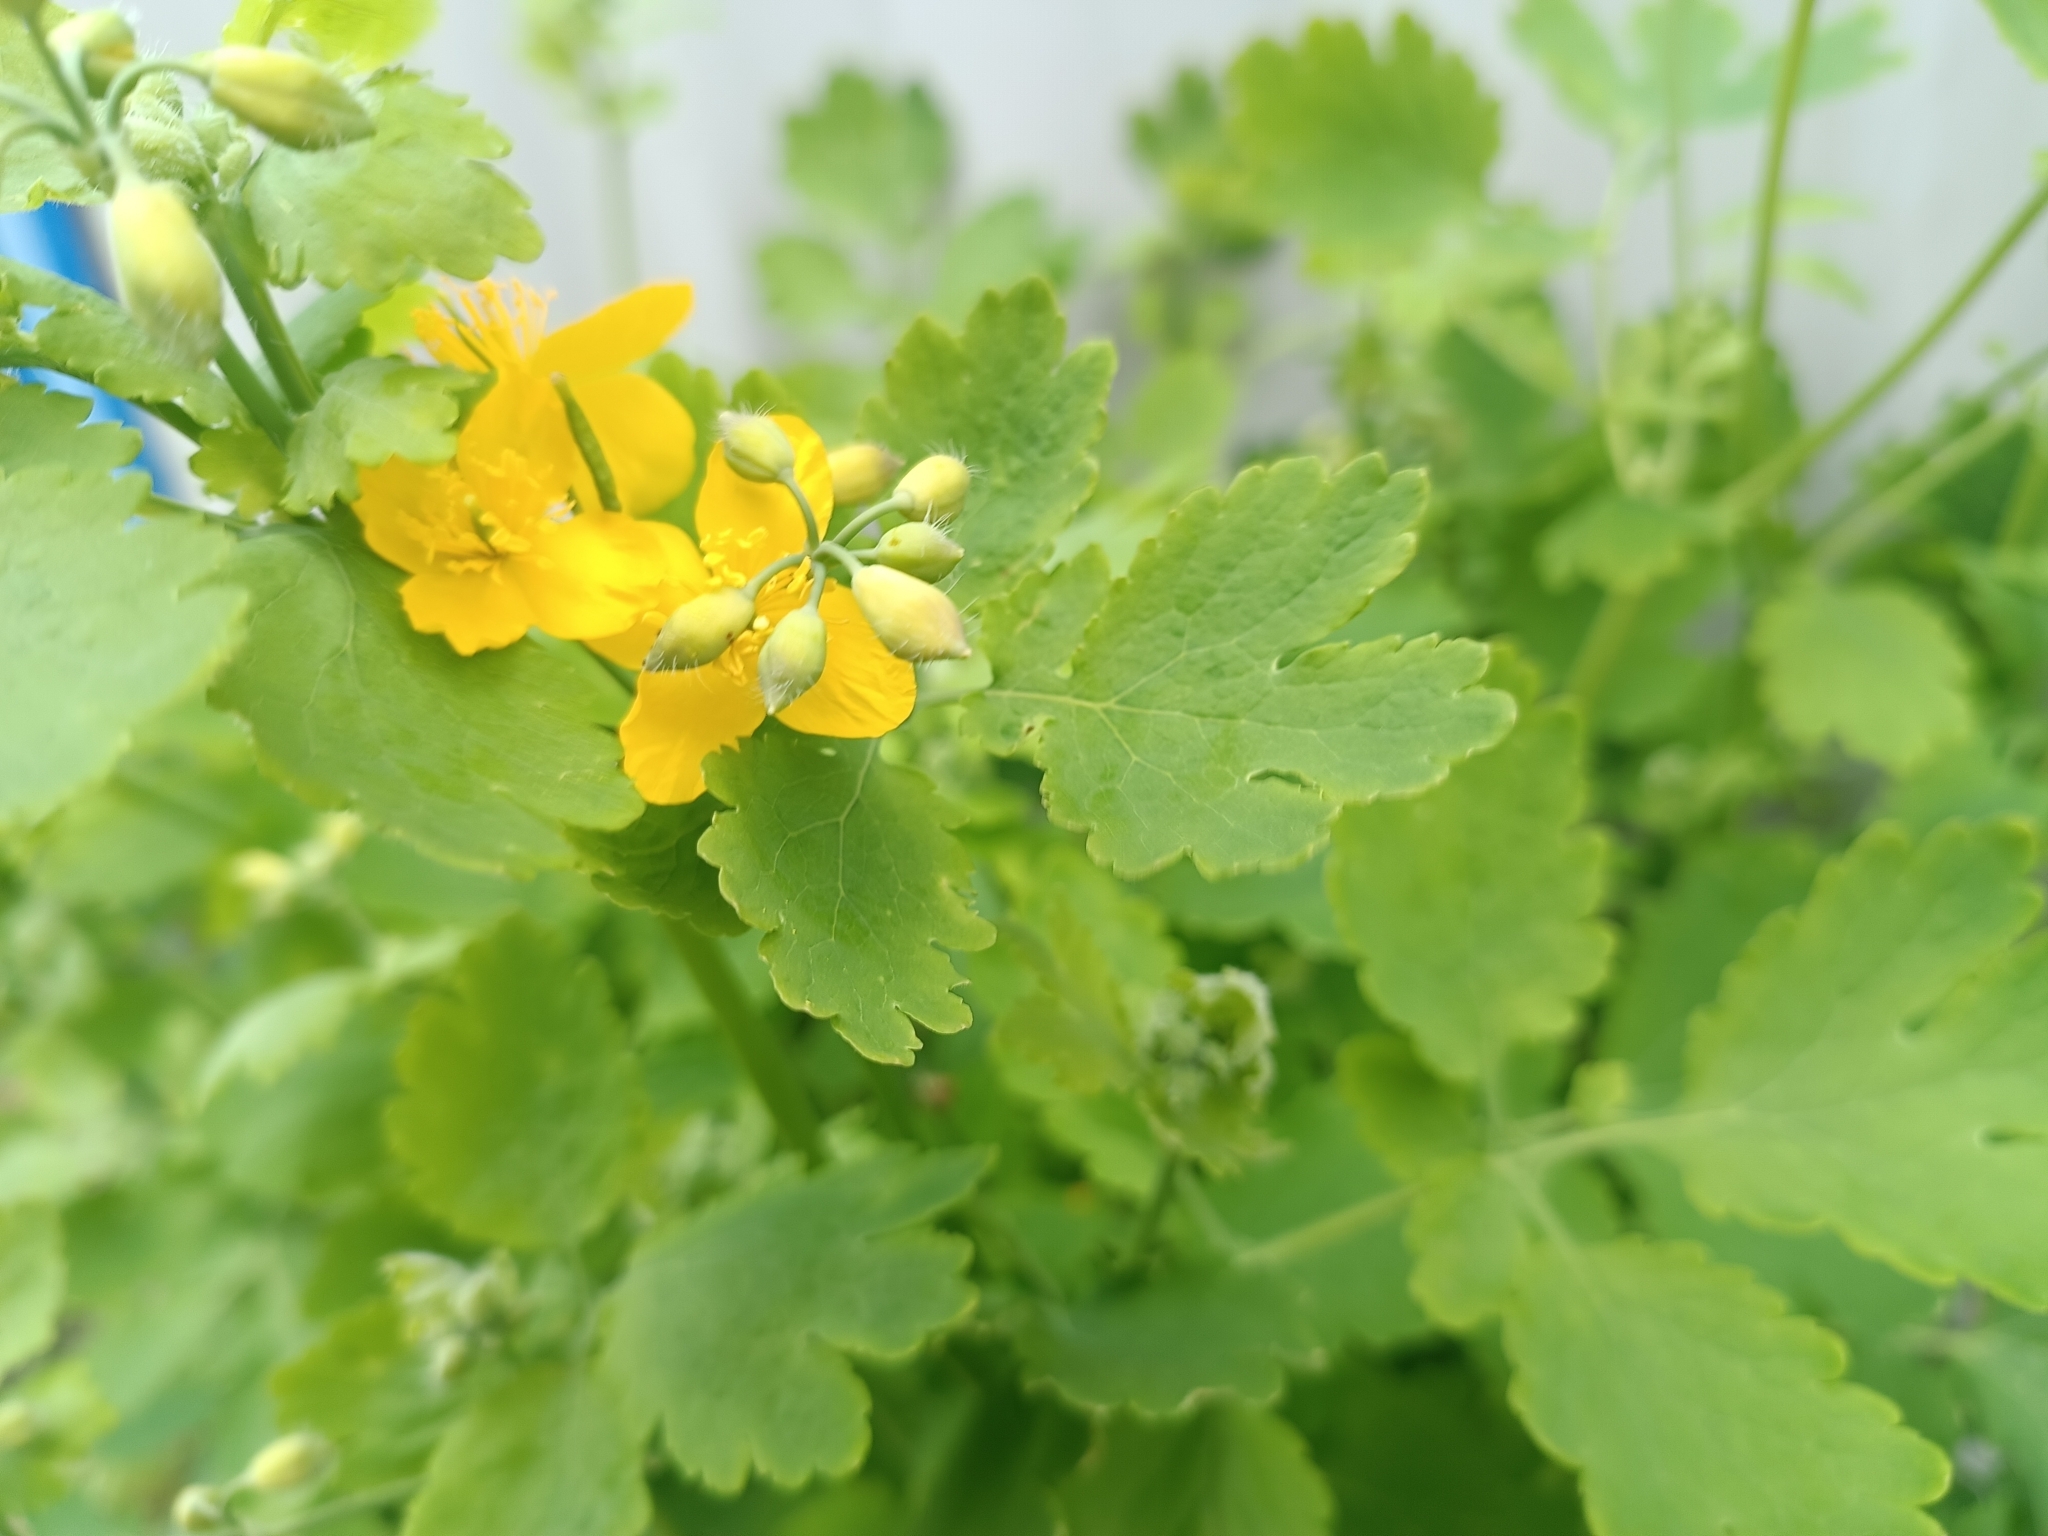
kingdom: Plantae
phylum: Tracheophyta
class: Magnoliopsida
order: Ranunculales
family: Papaveraceae
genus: Chelidonium
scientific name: Chelidonium majus
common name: Greater celandine
